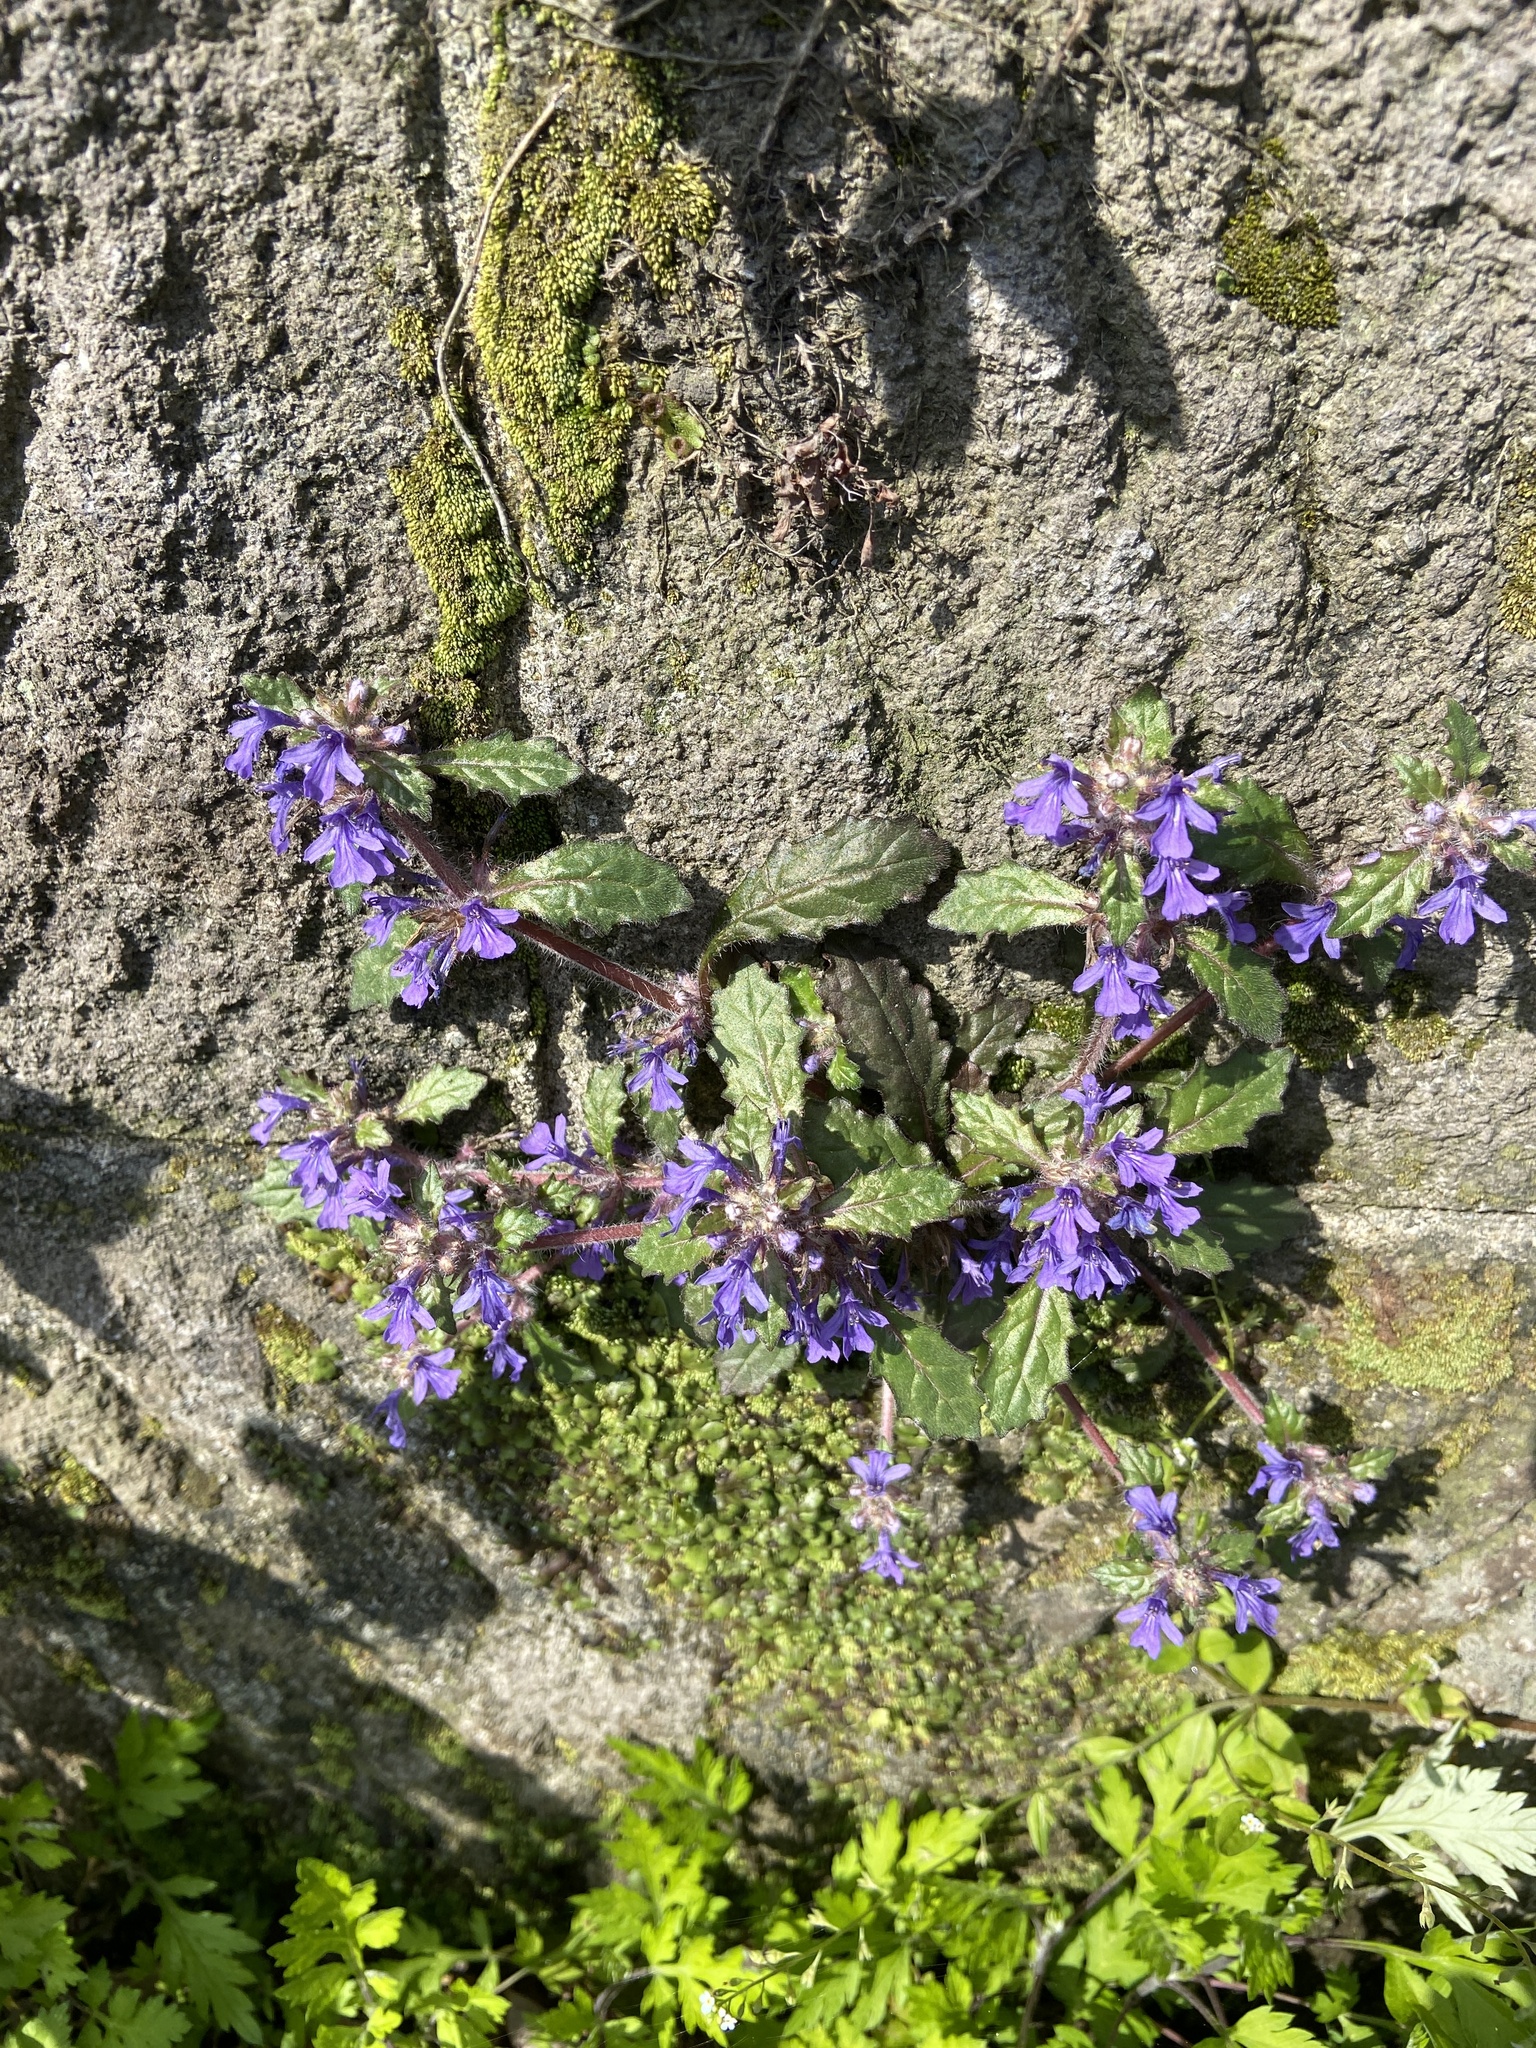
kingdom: Plantae
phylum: Tracheophyta
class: Magnoliopsida
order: Lamiales
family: Lamiaceae
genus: Ajuga
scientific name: Ajuga decumbens
